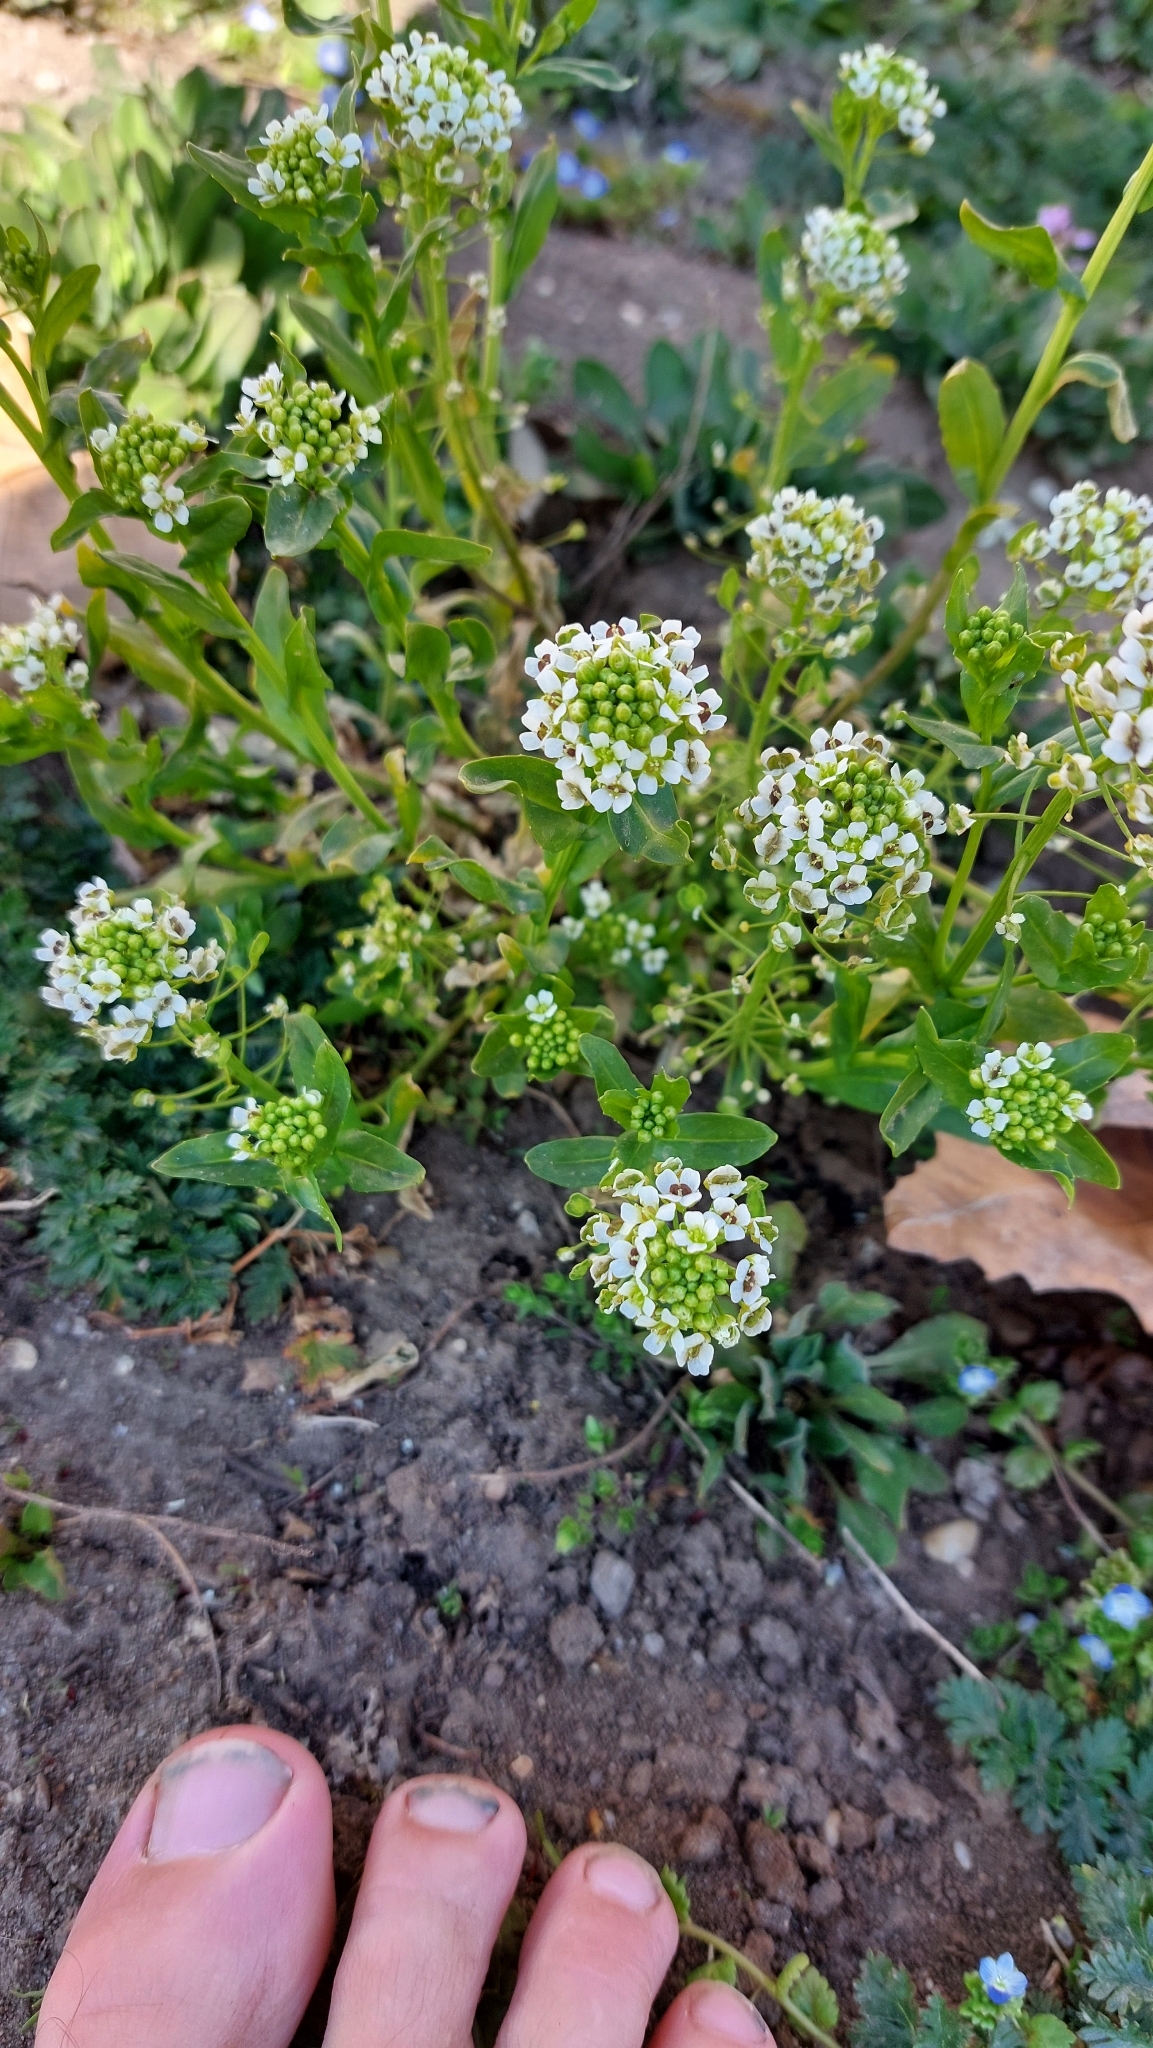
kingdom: Plantae
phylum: Tracheophyta
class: Magnoliopsida
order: Brassicales
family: Brassicaceae
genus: Thlaspi
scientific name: Thlaspi arvense
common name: Field pennycress
